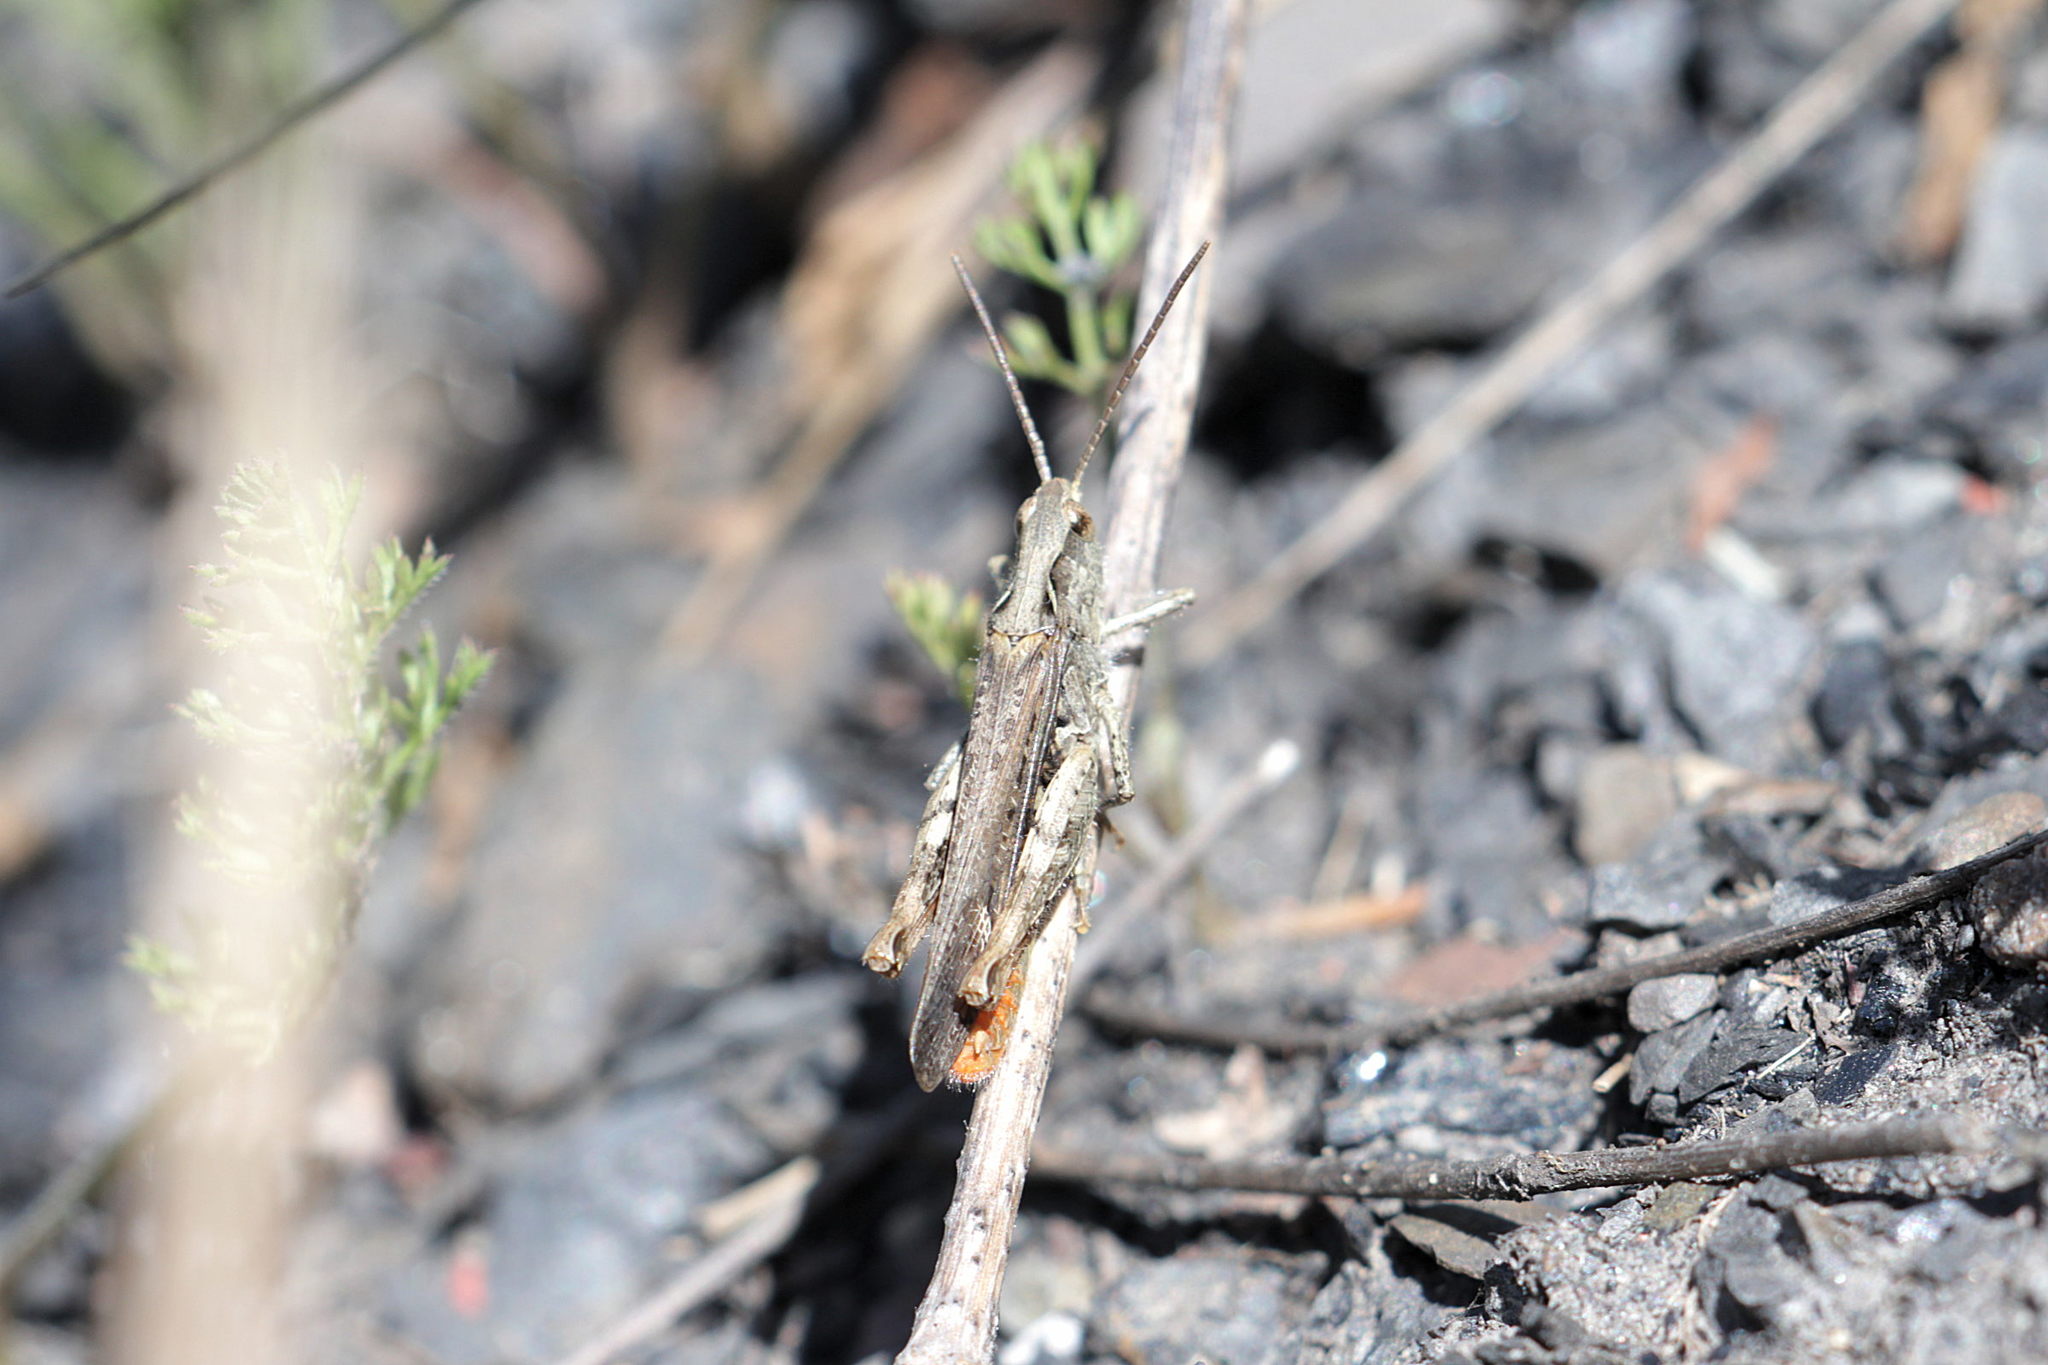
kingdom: Animalia
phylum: Arthropoda
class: Insecta
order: Orthoptera
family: Acrididae
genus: Chorthippus
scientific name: Chorthippus brunneus
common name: Field grasshopper
